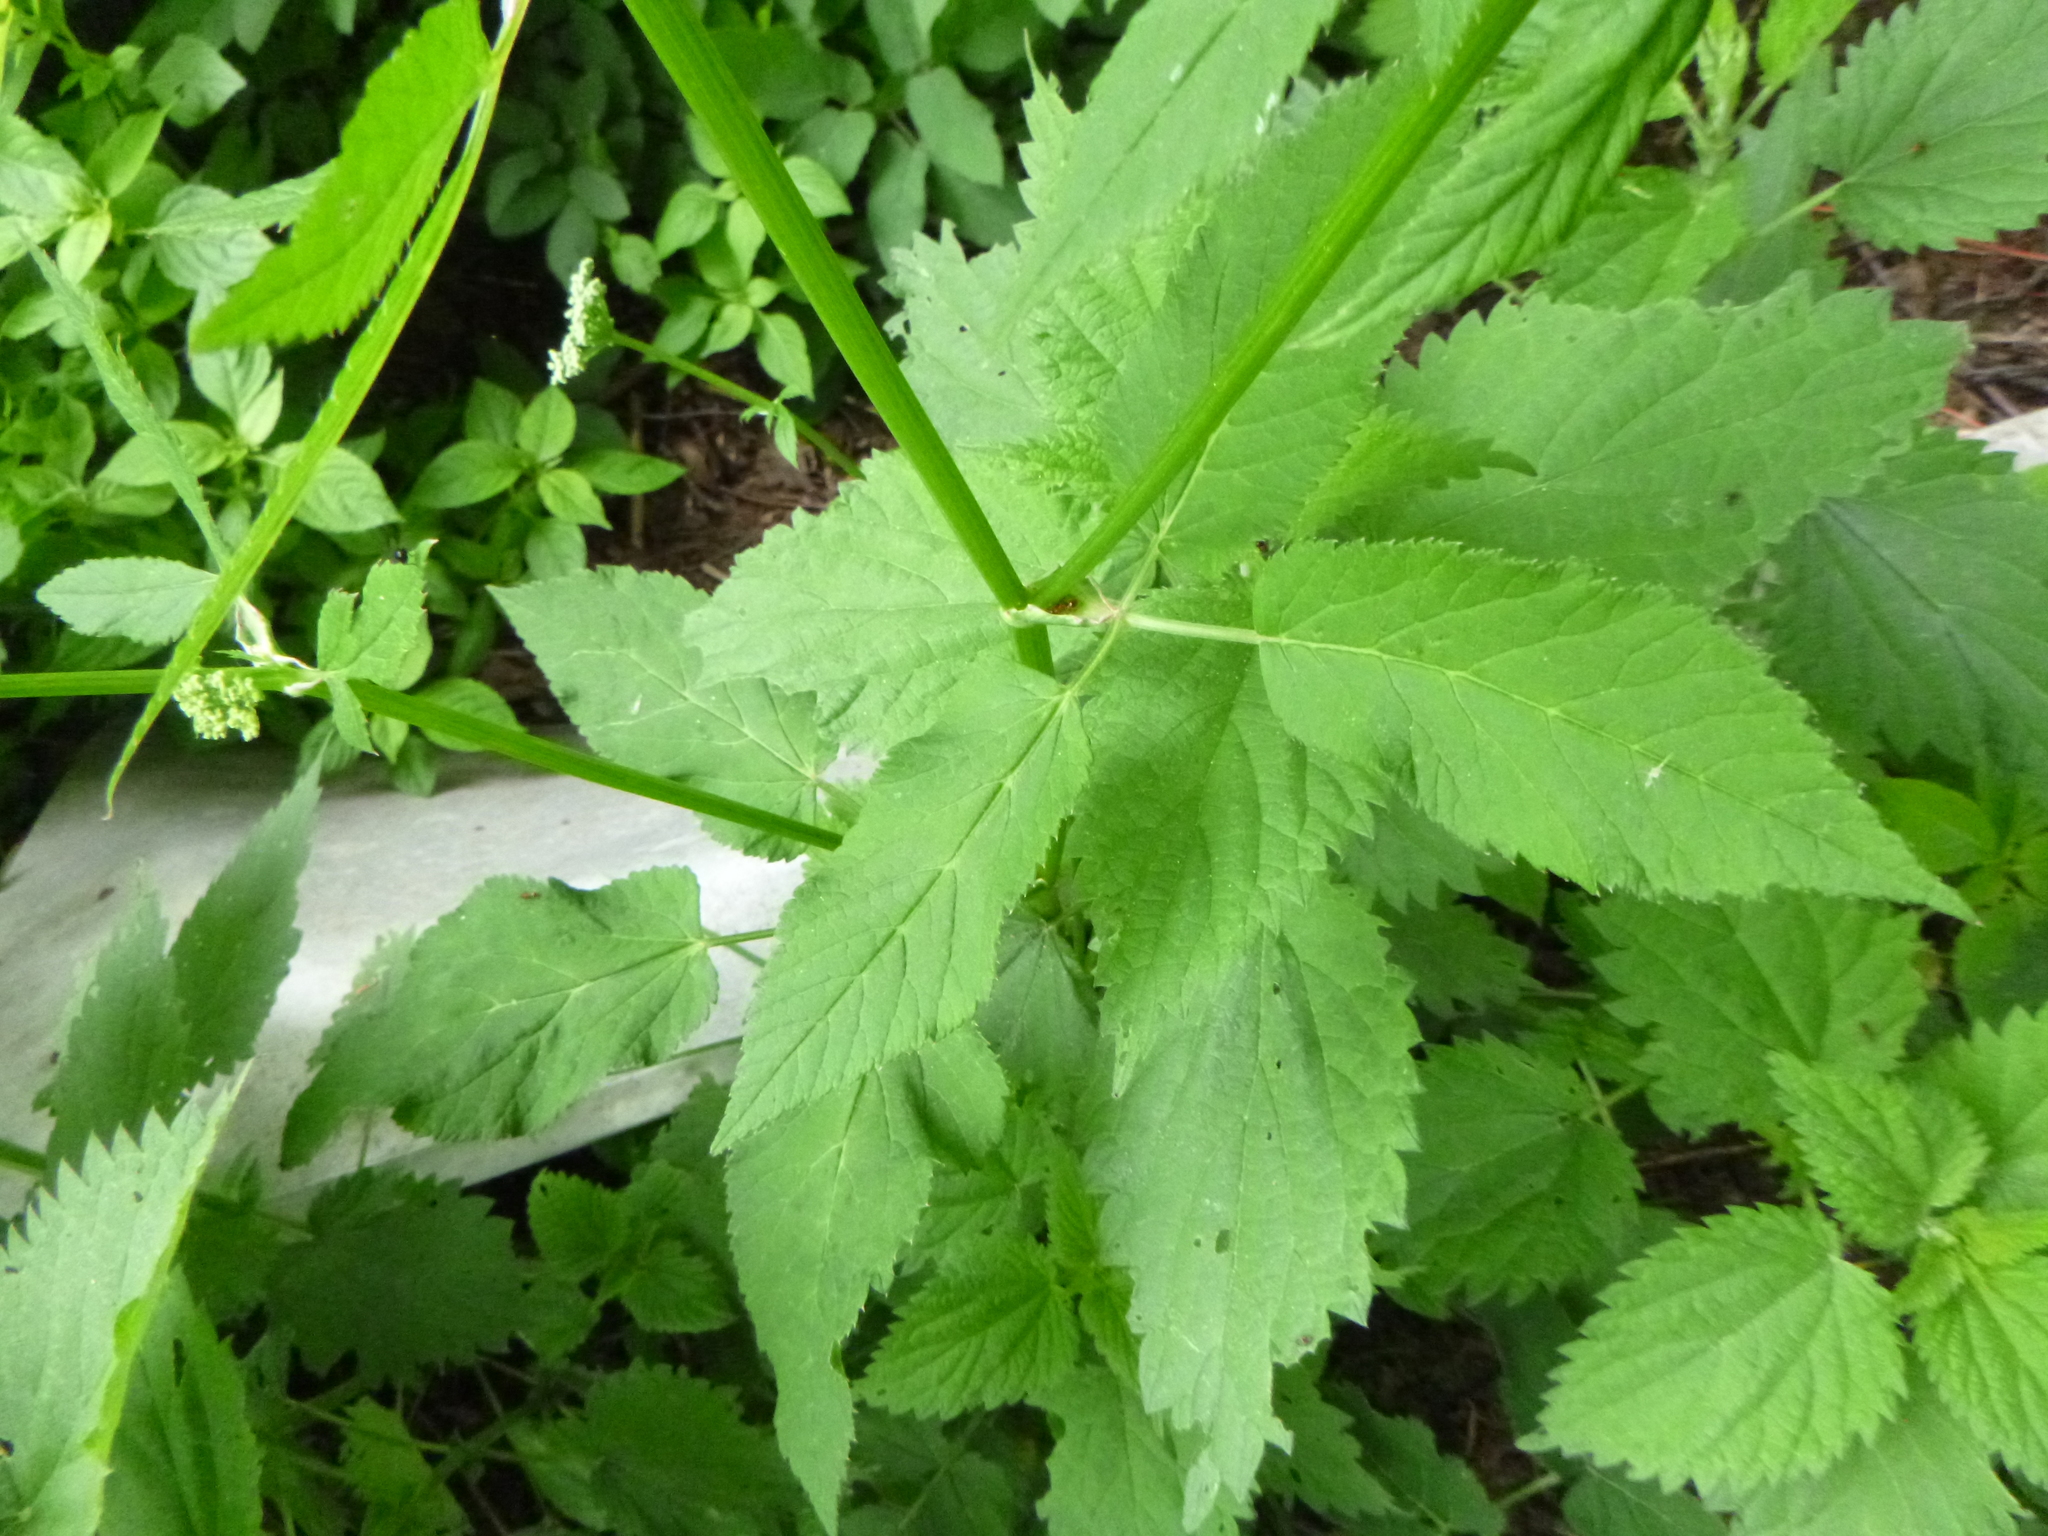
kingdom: Plantae
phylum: Tracheophyta
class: Magnoliopsida
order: Apiales
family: Apiaceae
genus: Aegopodium
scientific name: Aegopodium podagraria
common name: Ground-elder
